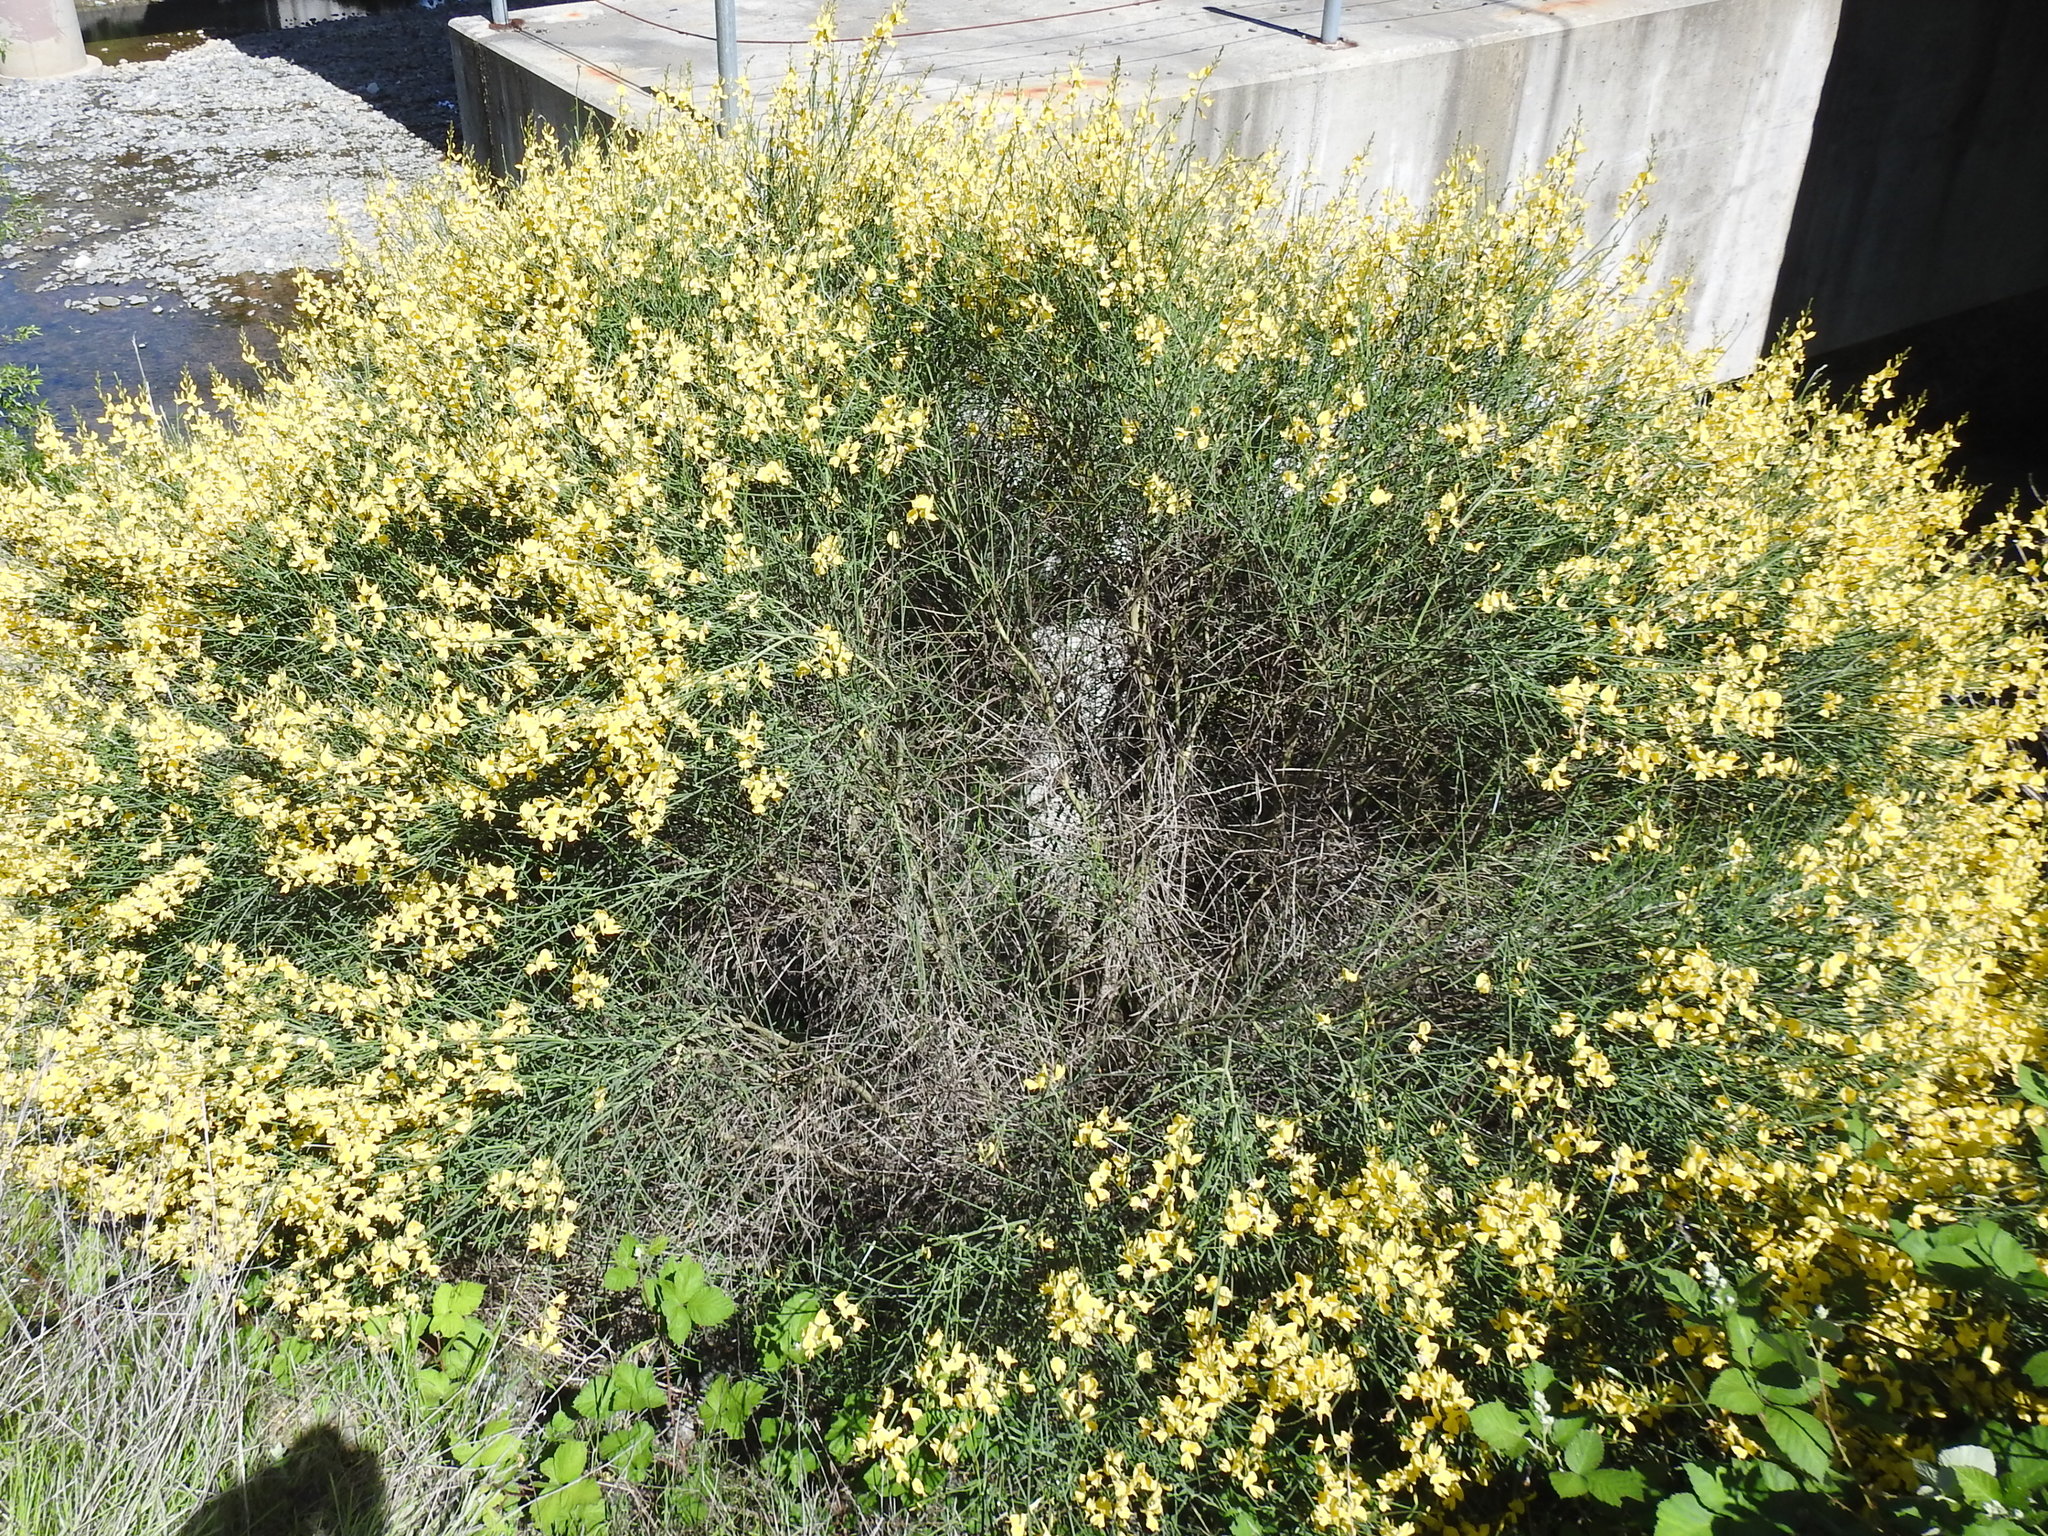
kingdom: Plantae
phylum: Tracheophyta
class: Magnoliopsida
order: Fabales
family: Fabaceae
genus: Spartium
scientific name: Spartium junceum
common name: Spanish broom
